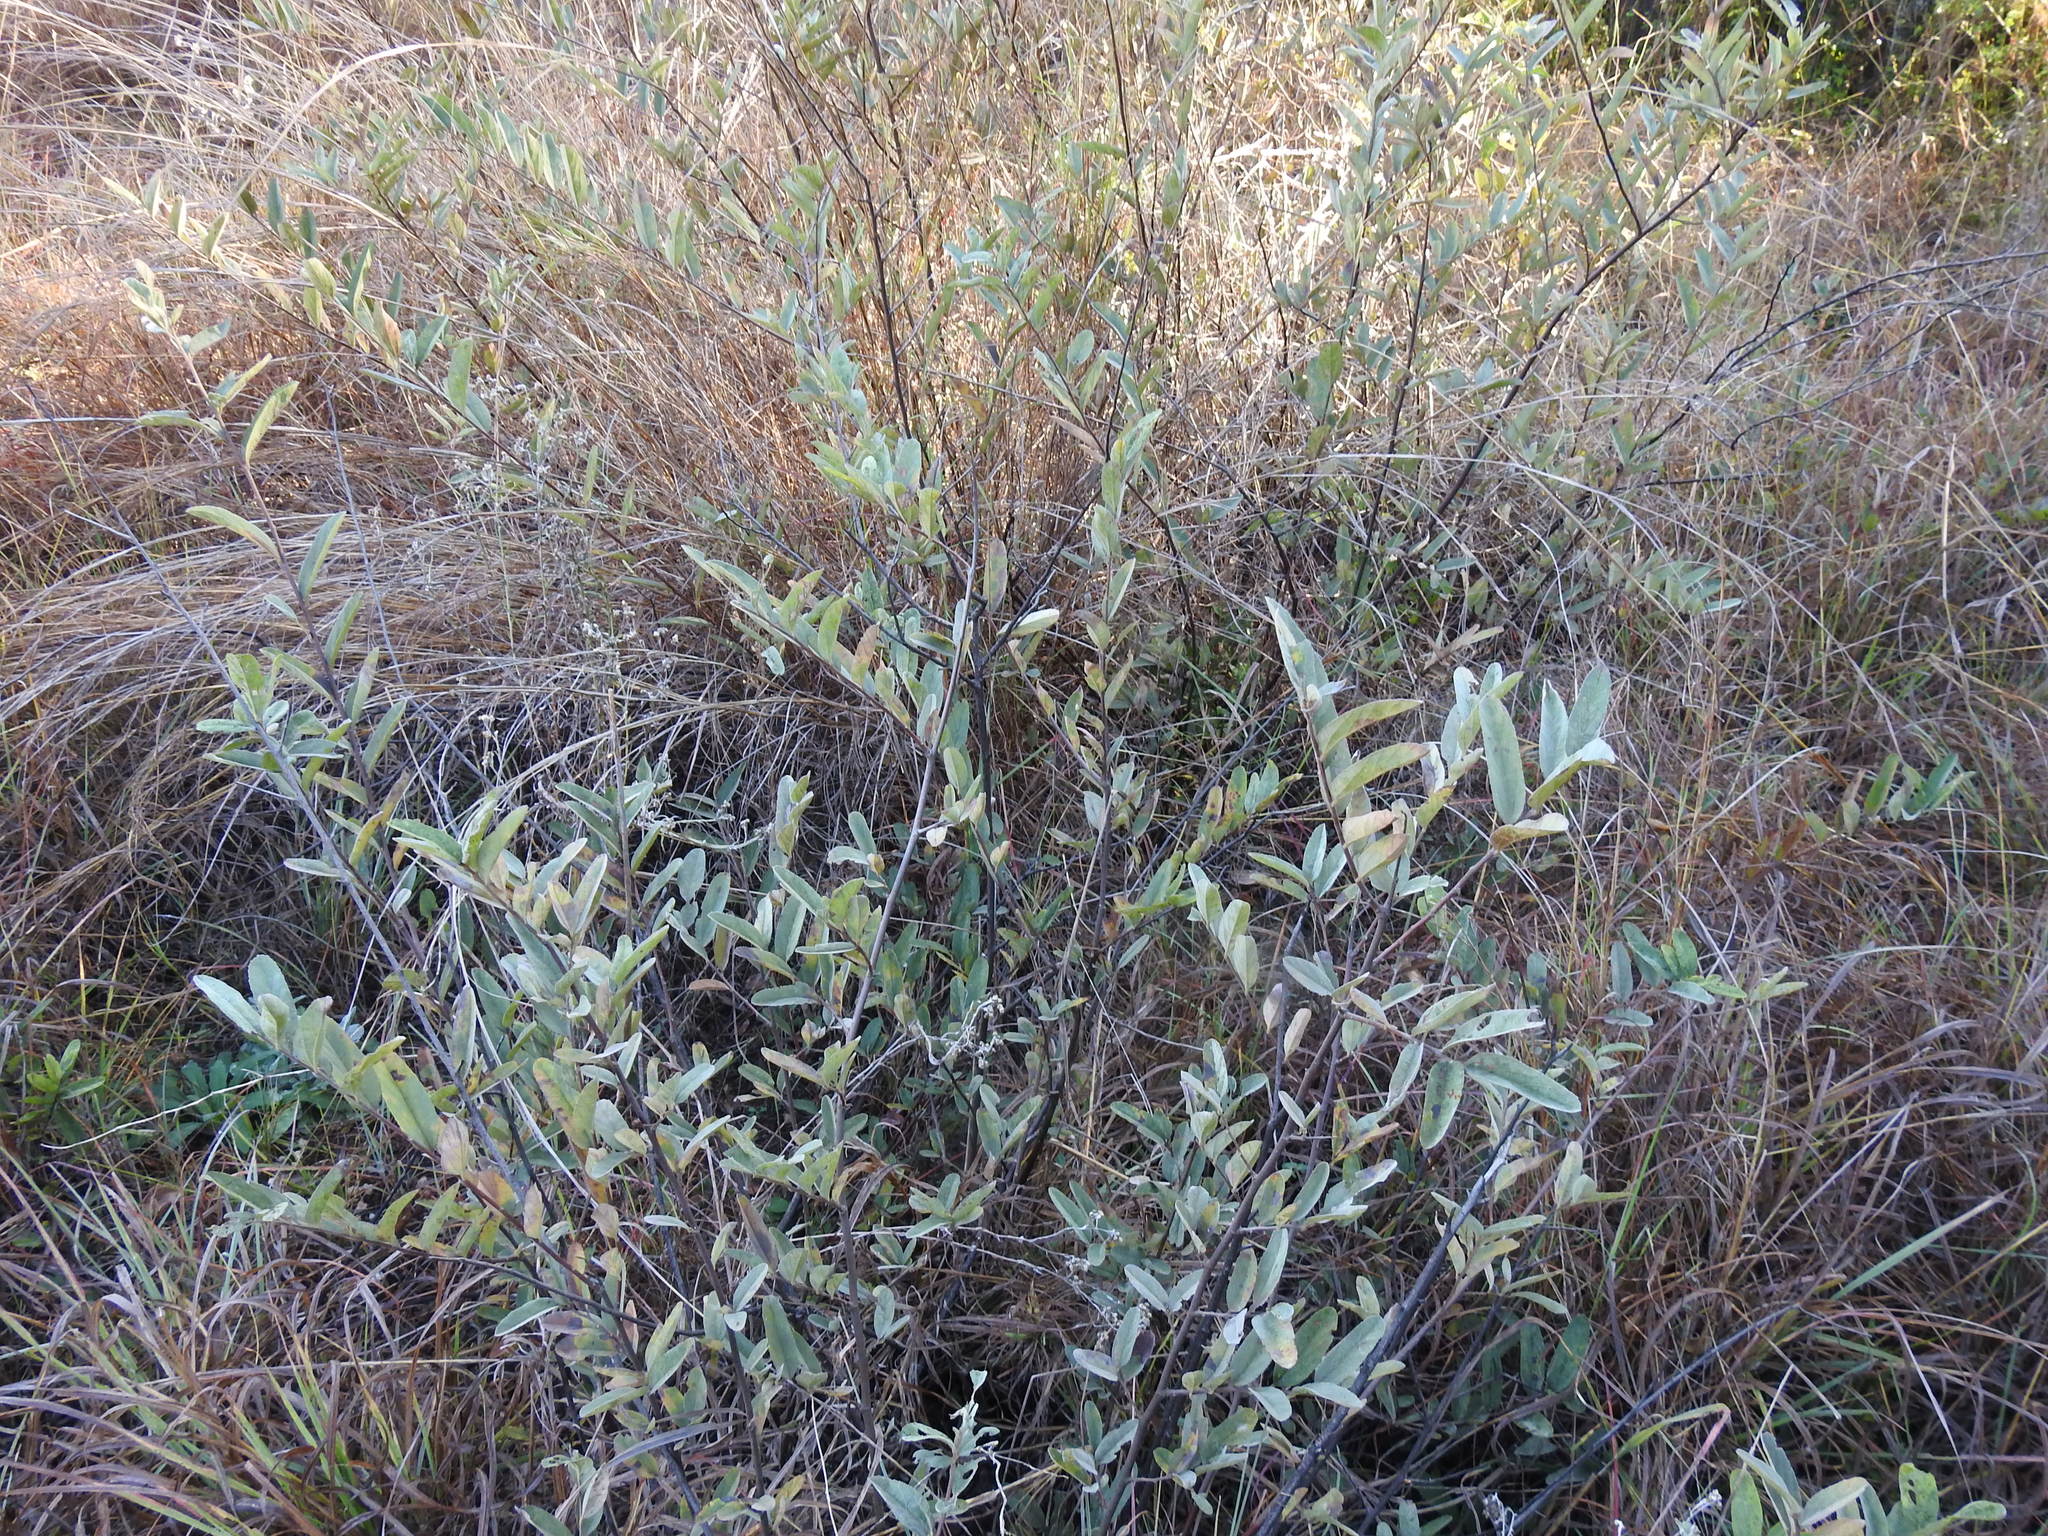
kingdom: Plantae
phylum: Tracheophyta
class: Magnoliopsida
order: Malvales
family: Malvaceae
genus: Grewia
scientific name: Grewia flava
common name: Brandy bush
